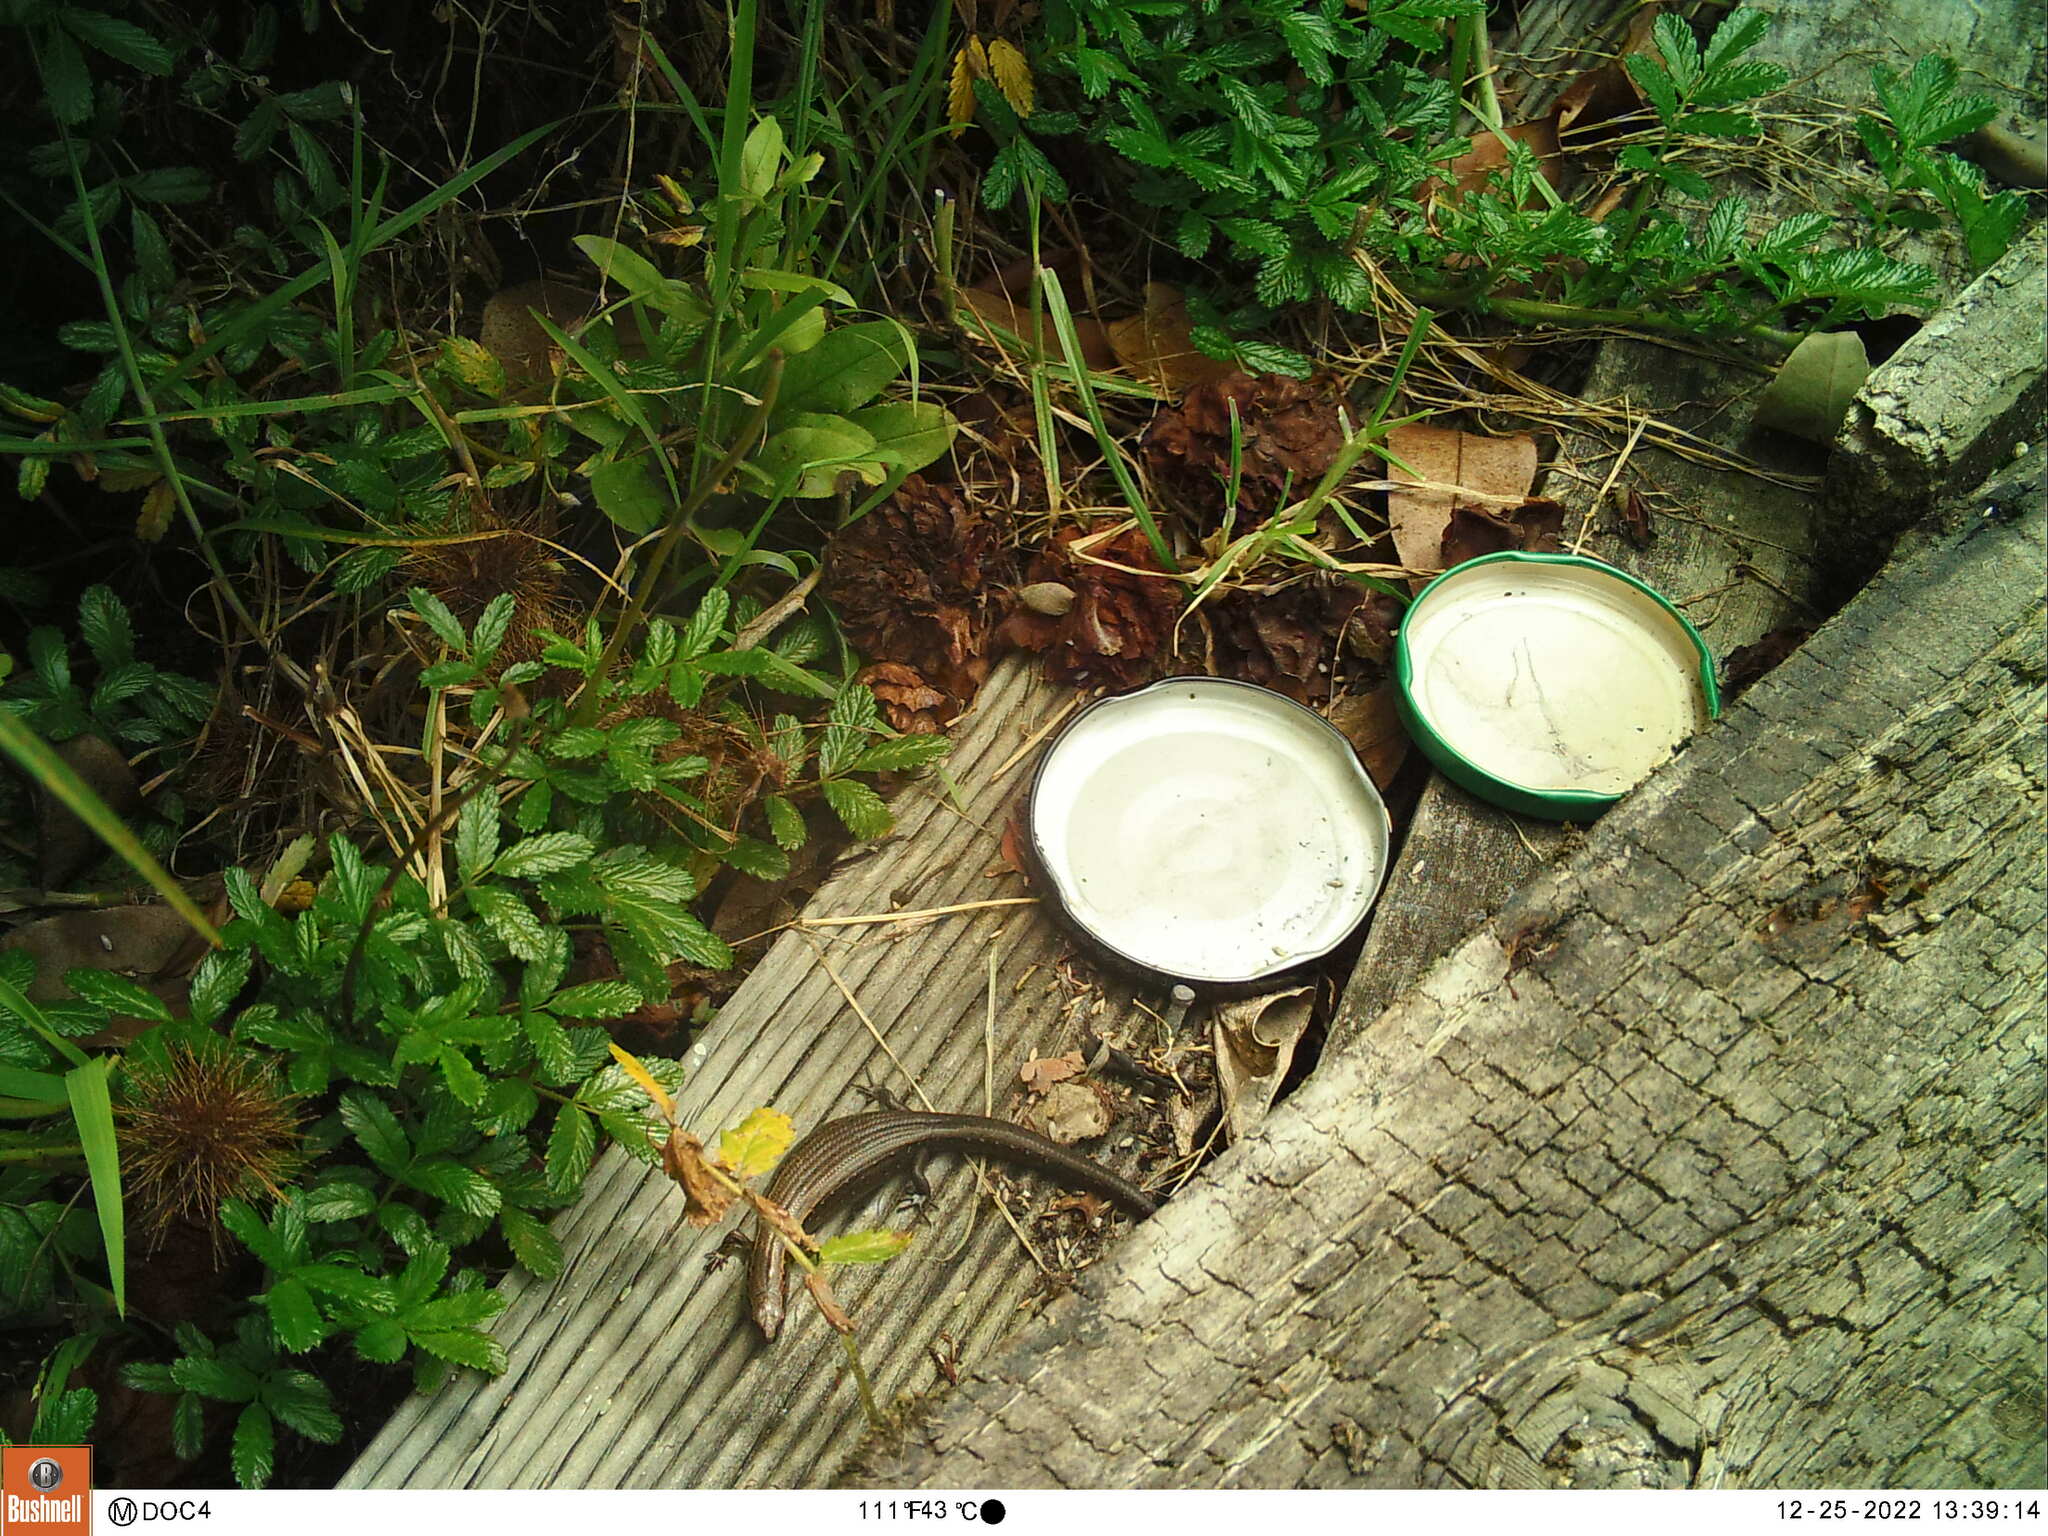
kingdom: Animalia
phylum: Chordata
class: Squamata
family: Scincidae
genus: Oligosoma
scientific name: Oligosoma aeneum
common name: Copper skink
